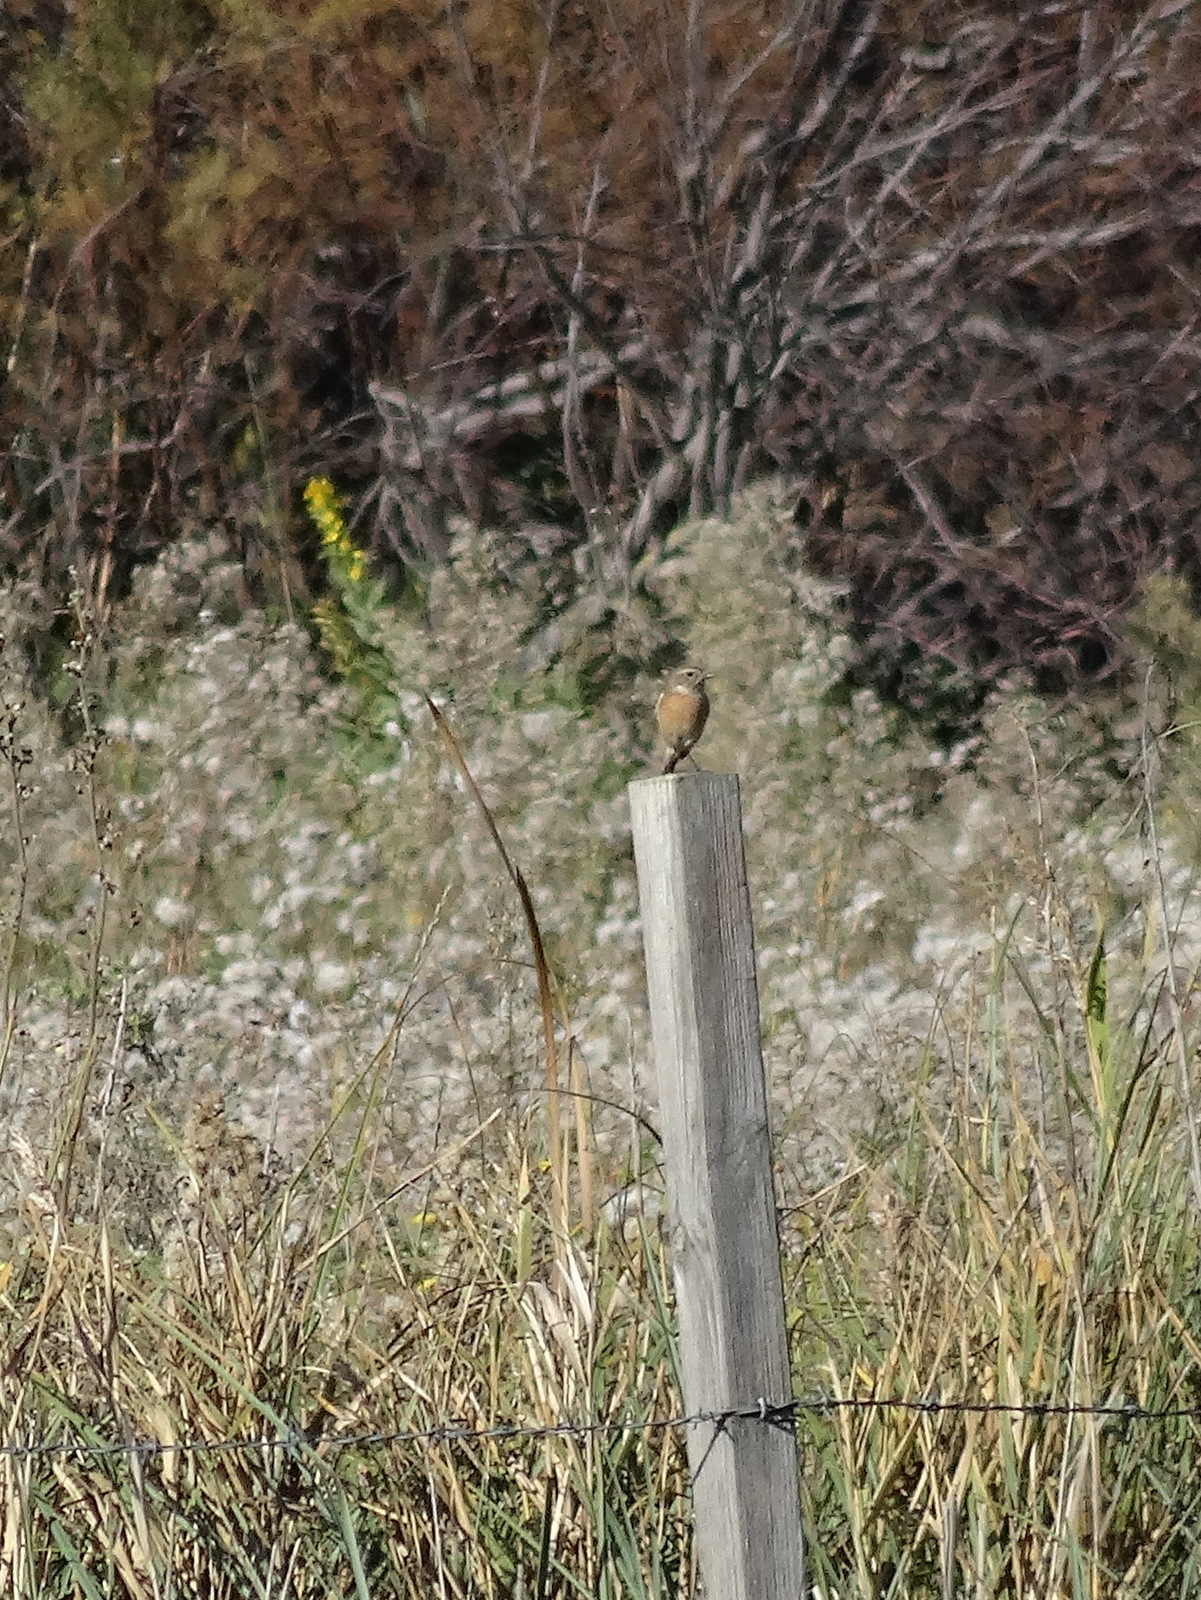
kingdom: Animalia
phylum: Chordata
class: Aves
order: Passeriformes
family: Muscicapidae
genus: Saxicola
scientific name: Saxicola rubicola
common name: European stonechat
